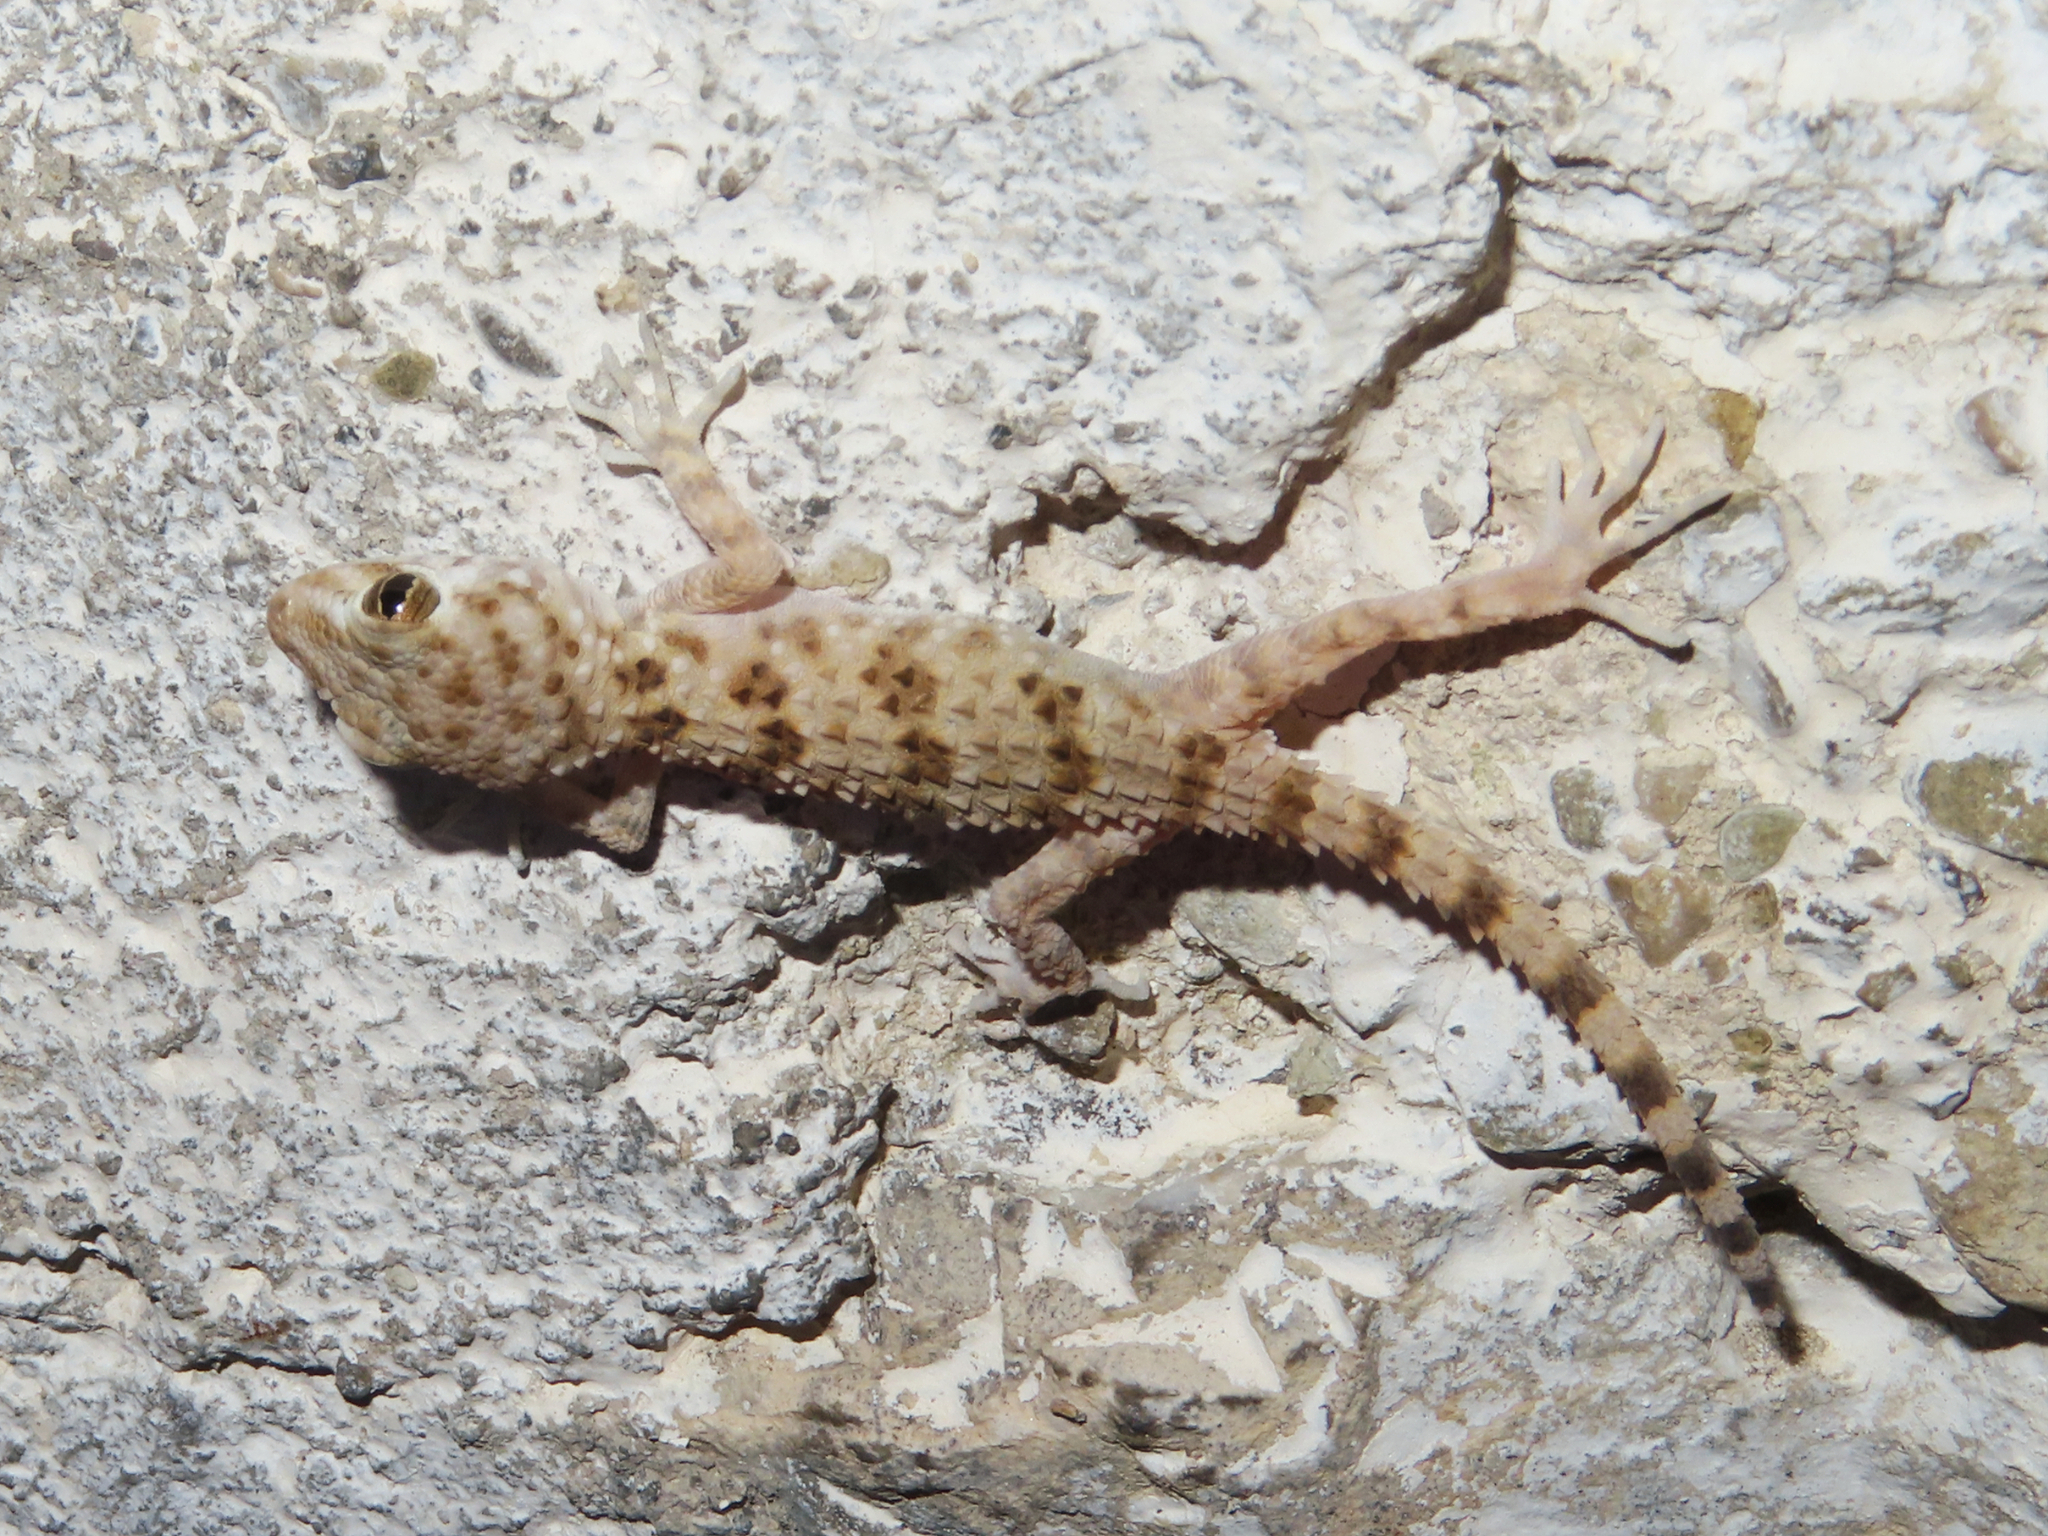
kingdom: Animalia
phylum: Chordata
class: Squamata
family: Gekkonidae
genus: Tenuidactylus
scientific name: Tenuidactylus caspius
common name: Caspian bent-toed gecko
